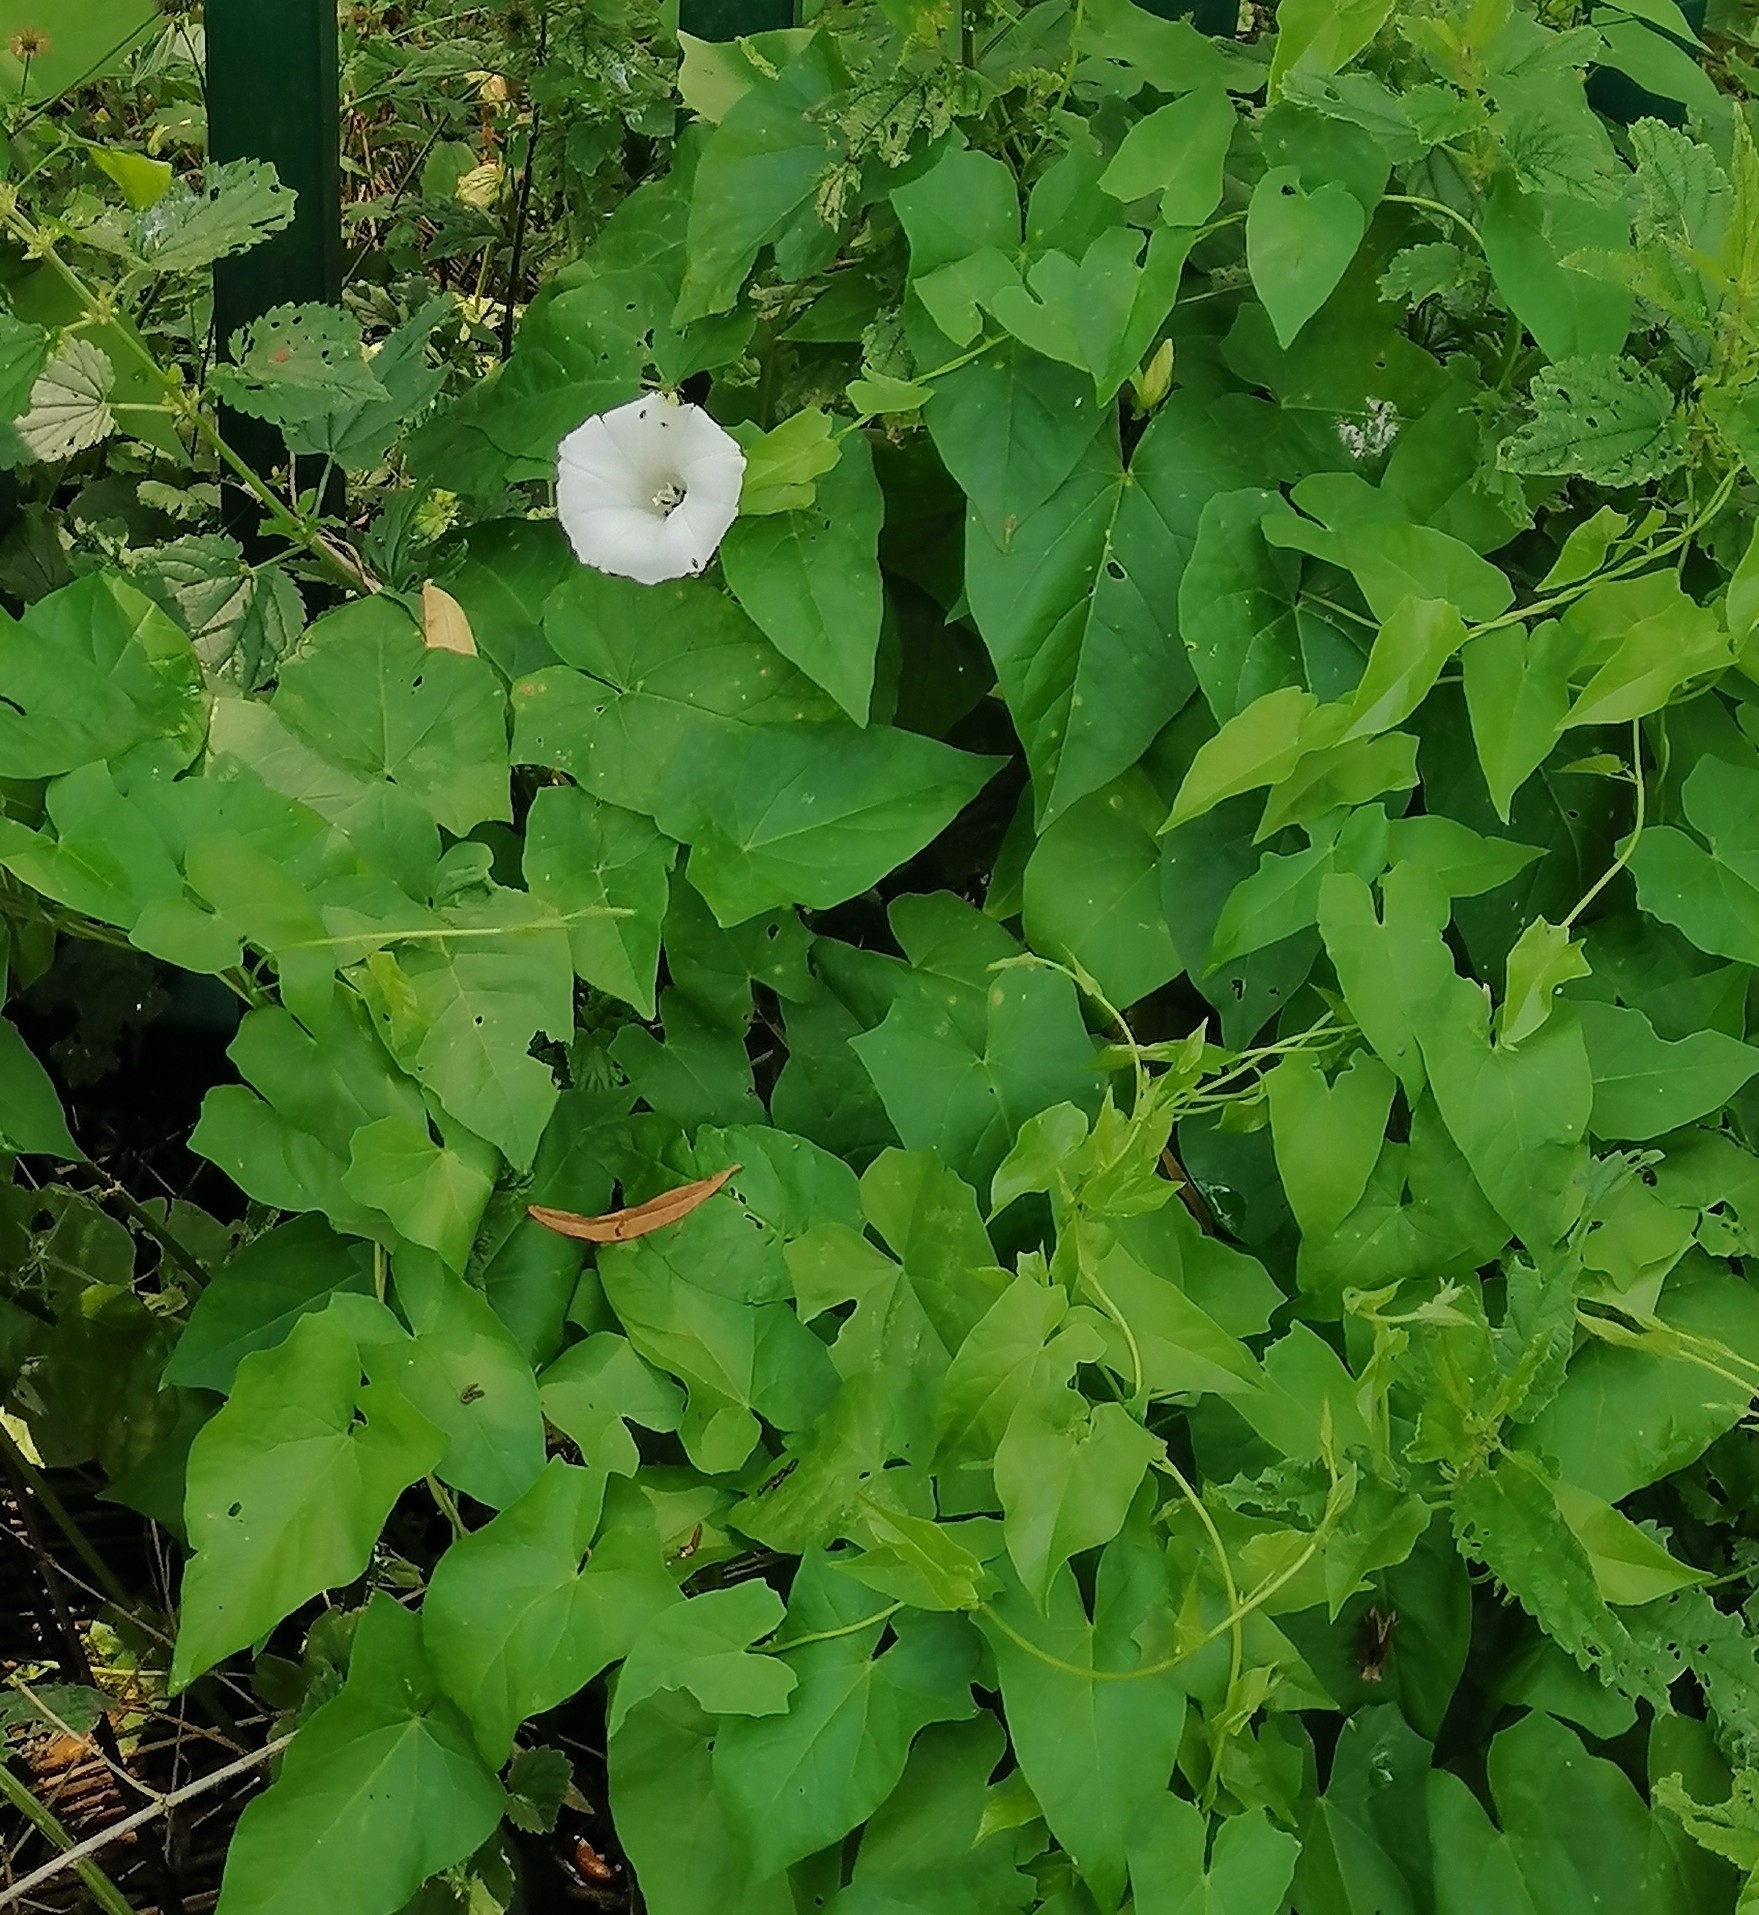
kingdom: Plantae
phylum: Tracheophyta
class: Magnoliopsida
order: Solanales
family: Convolvulaceae
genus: Calystegia
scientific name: Calystegia sepium
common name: Hedge bindweed
